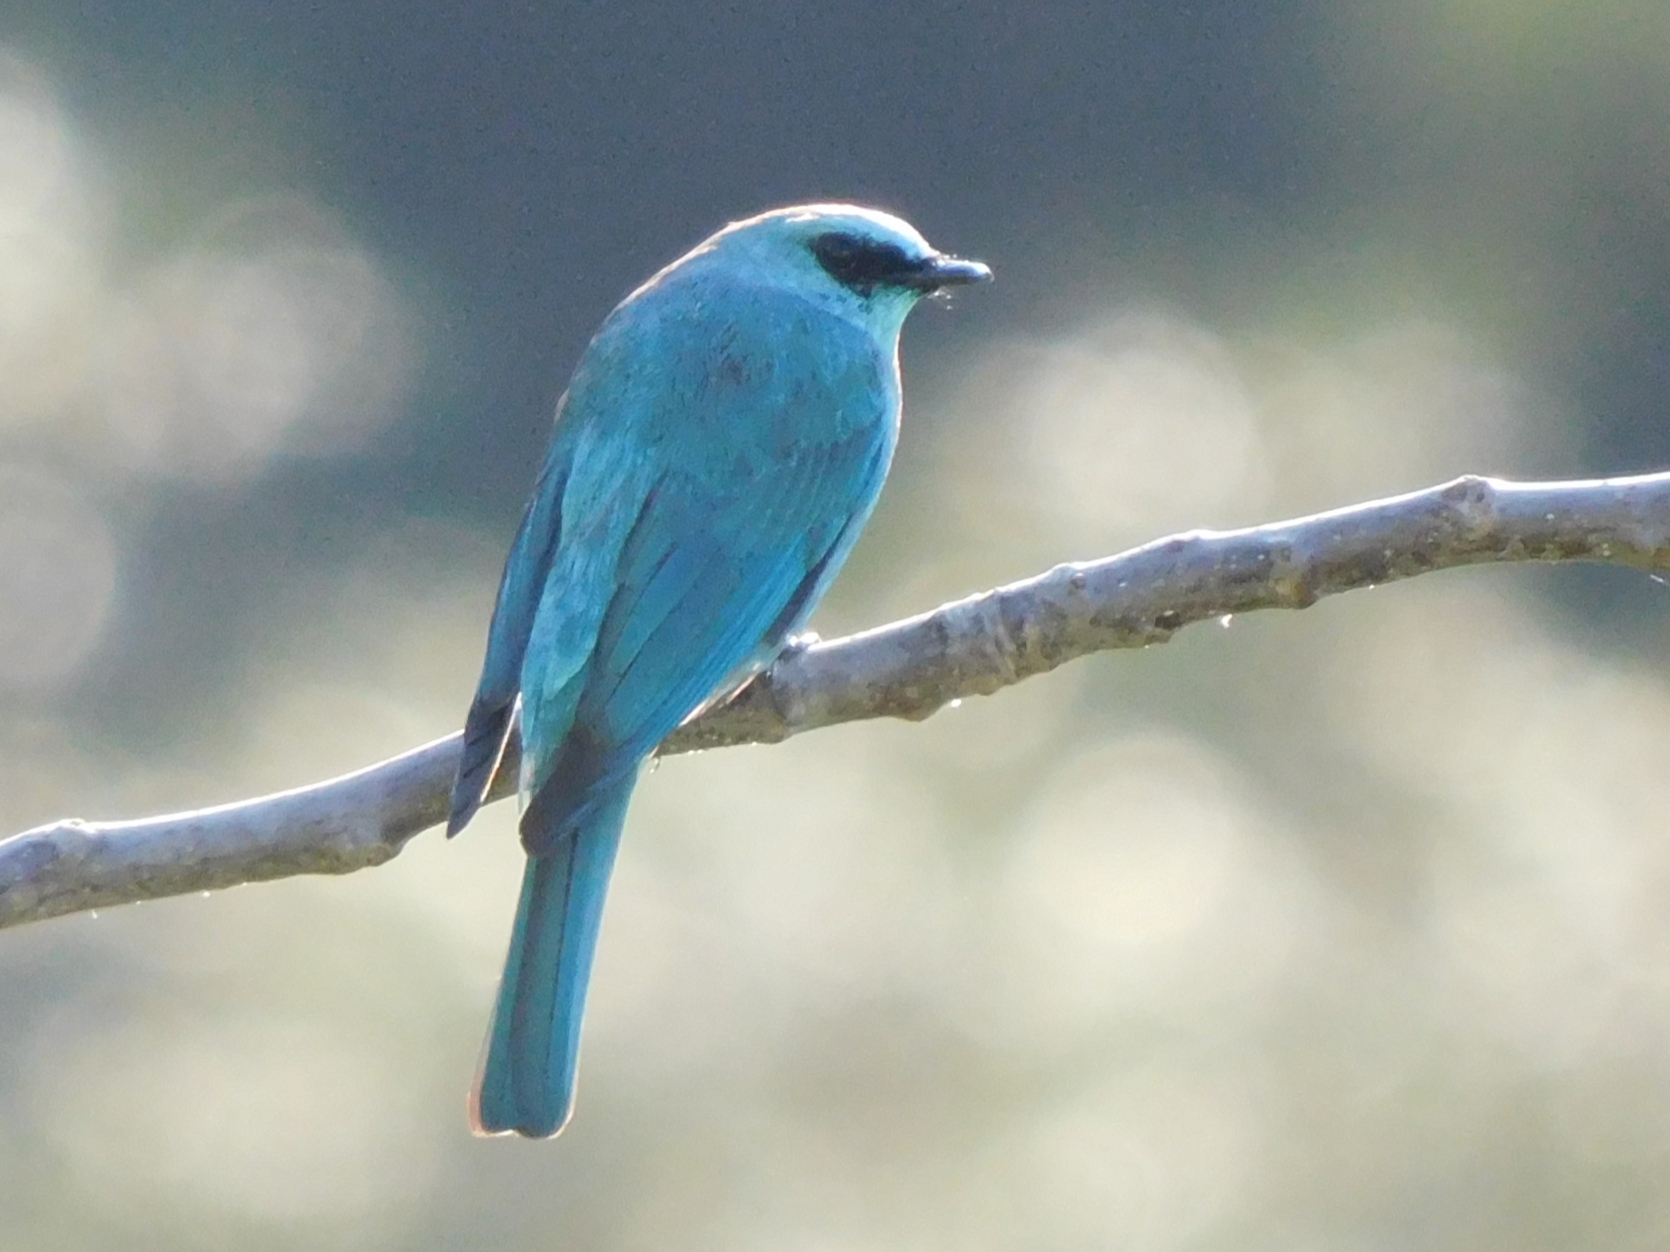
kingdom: Animalia
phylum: Chordata
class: Aves
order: Passeriformes
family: Muscicapidae
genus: Eumyias
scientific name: Eumyias thalassinus
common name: Verditer flycatcher
